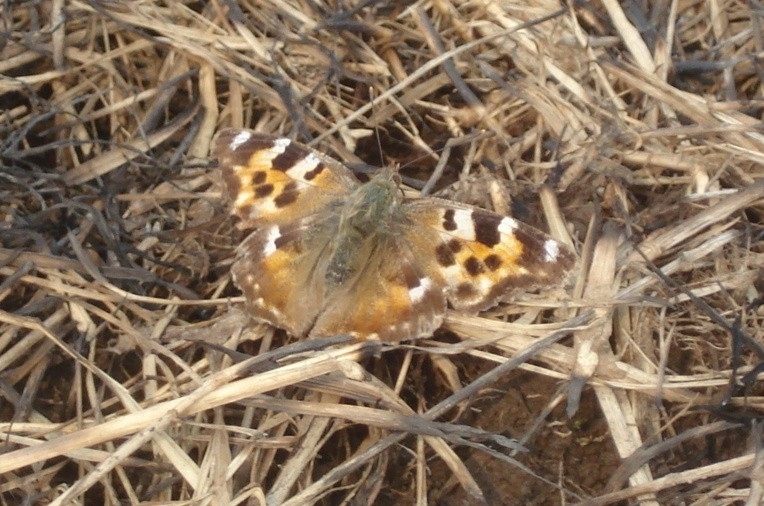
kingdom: Animalia
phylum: Arthropoda
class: Insecta
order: Lepidoptera
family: Nymphalidae
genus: Polygonia
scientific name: Polygonia vaualbum
